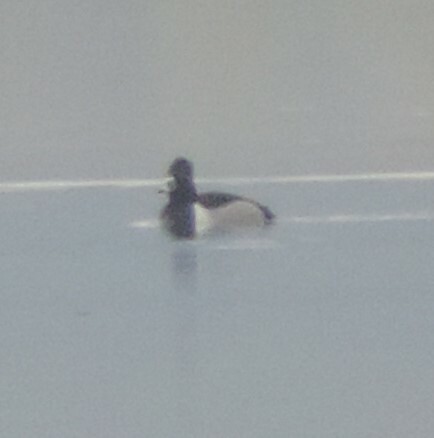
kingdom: Animalia
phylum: Chordata
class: Aves
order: Anseriformes
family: Anatidae
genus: Aythya
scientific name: Aythya collaris
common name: Ring-necked duck
